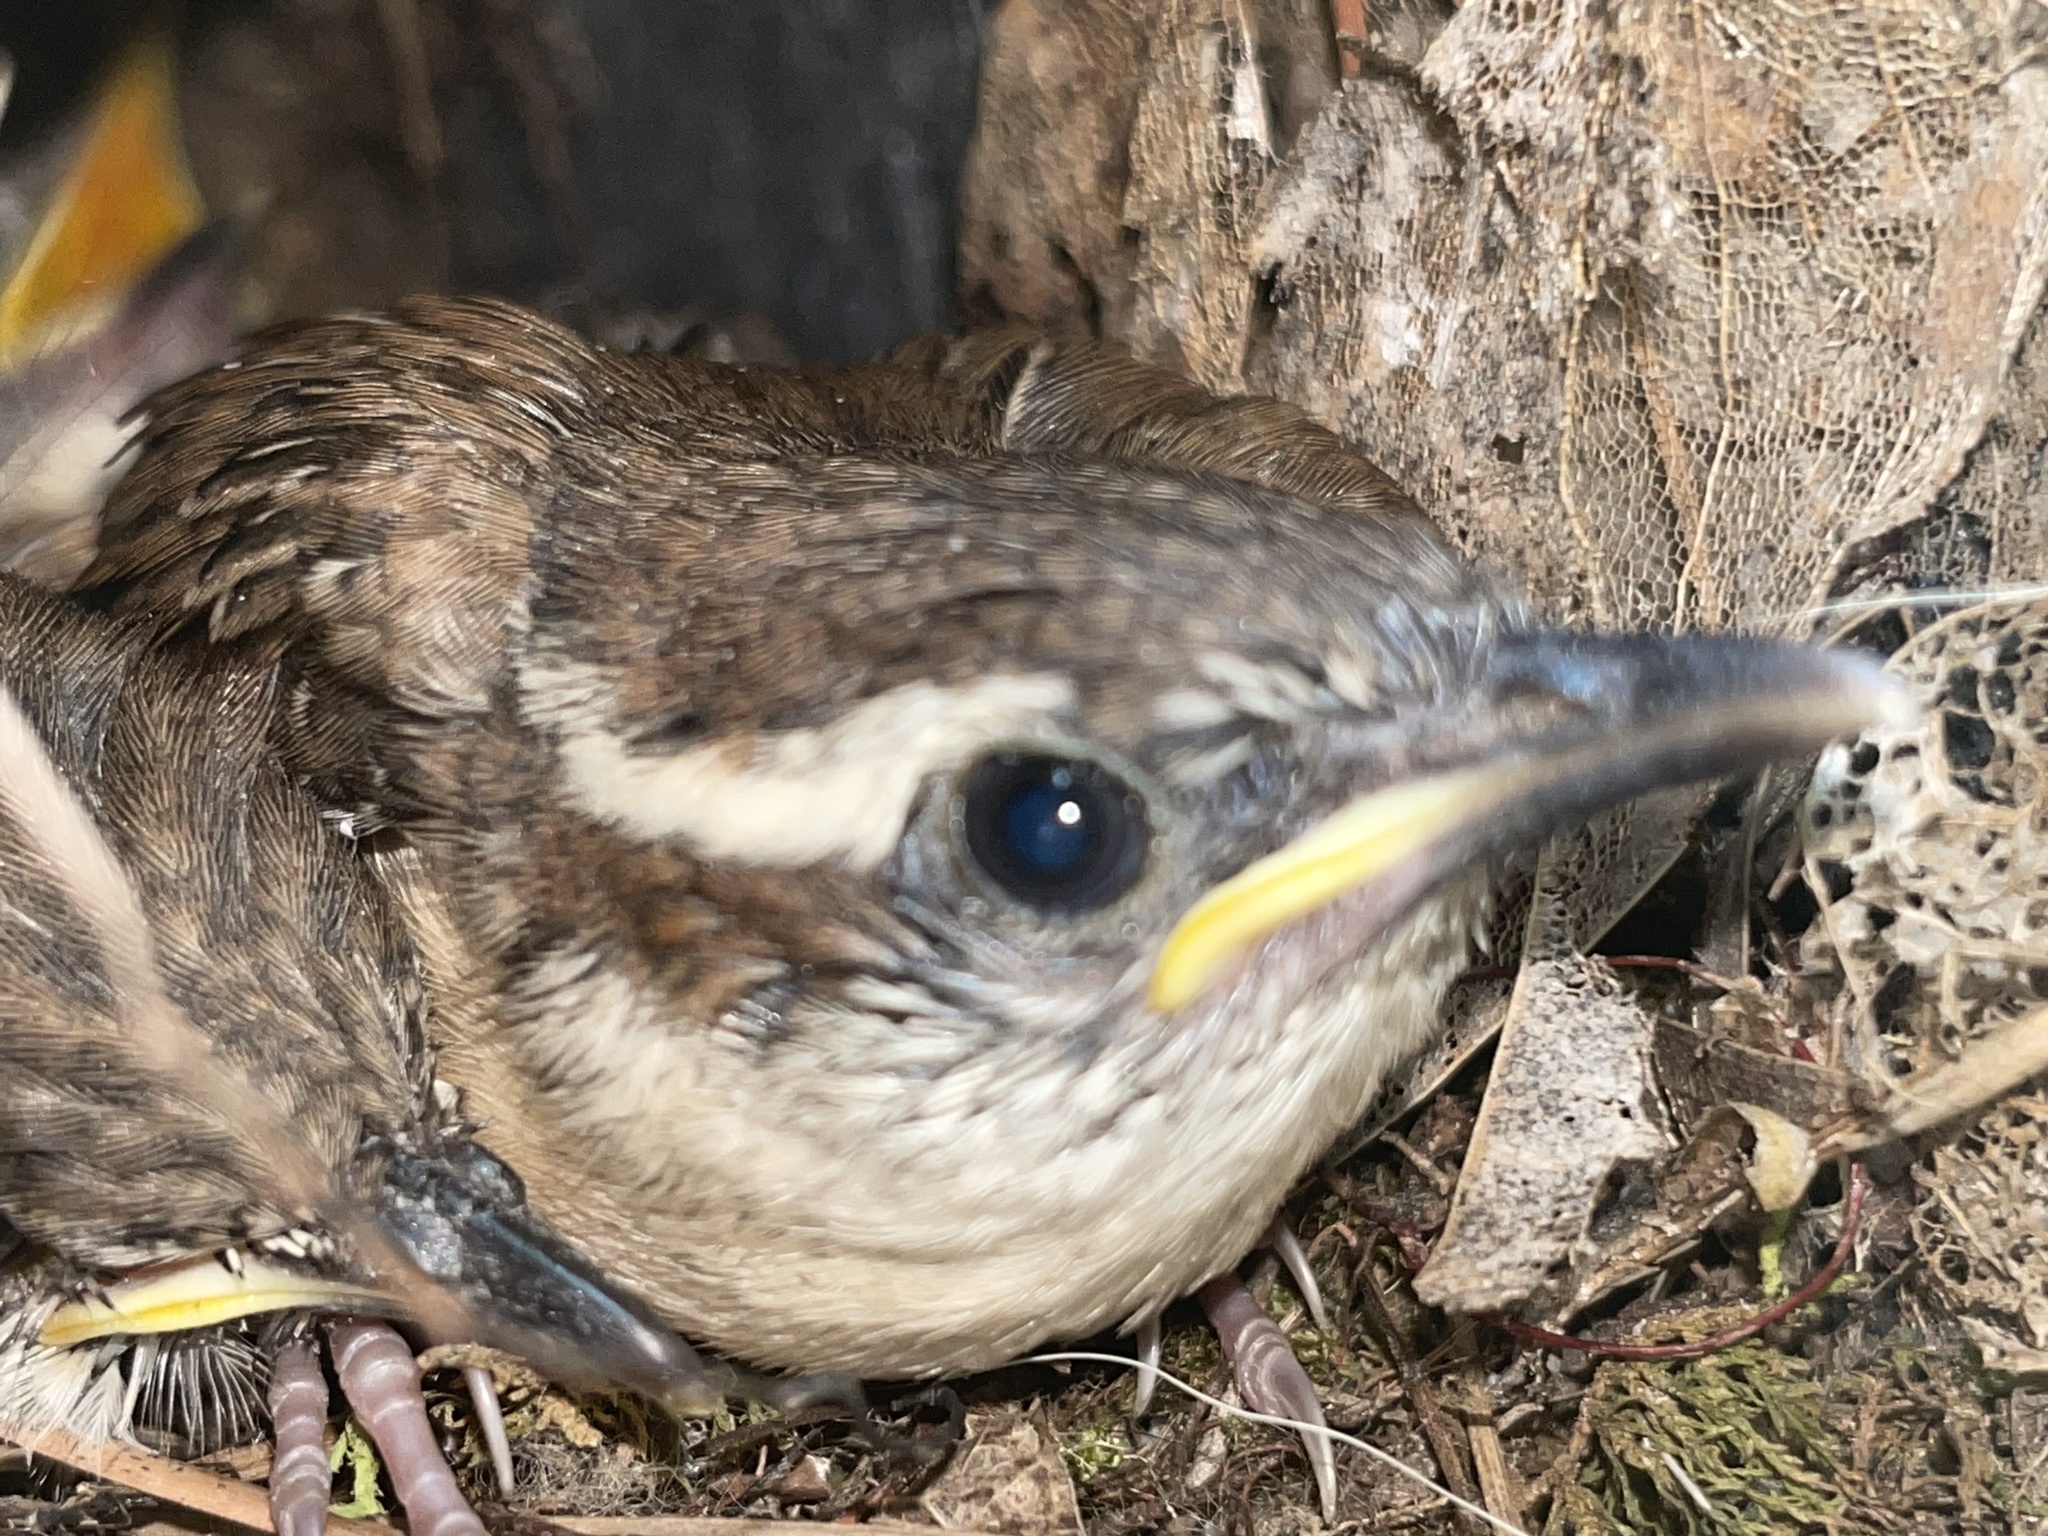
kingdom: Animalia
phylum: Chordata
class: Aves
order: Passeriformes
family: Troglodytidae
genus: Thryothorus
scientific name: Thryothorus ludovicianus
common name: Carolina wren
